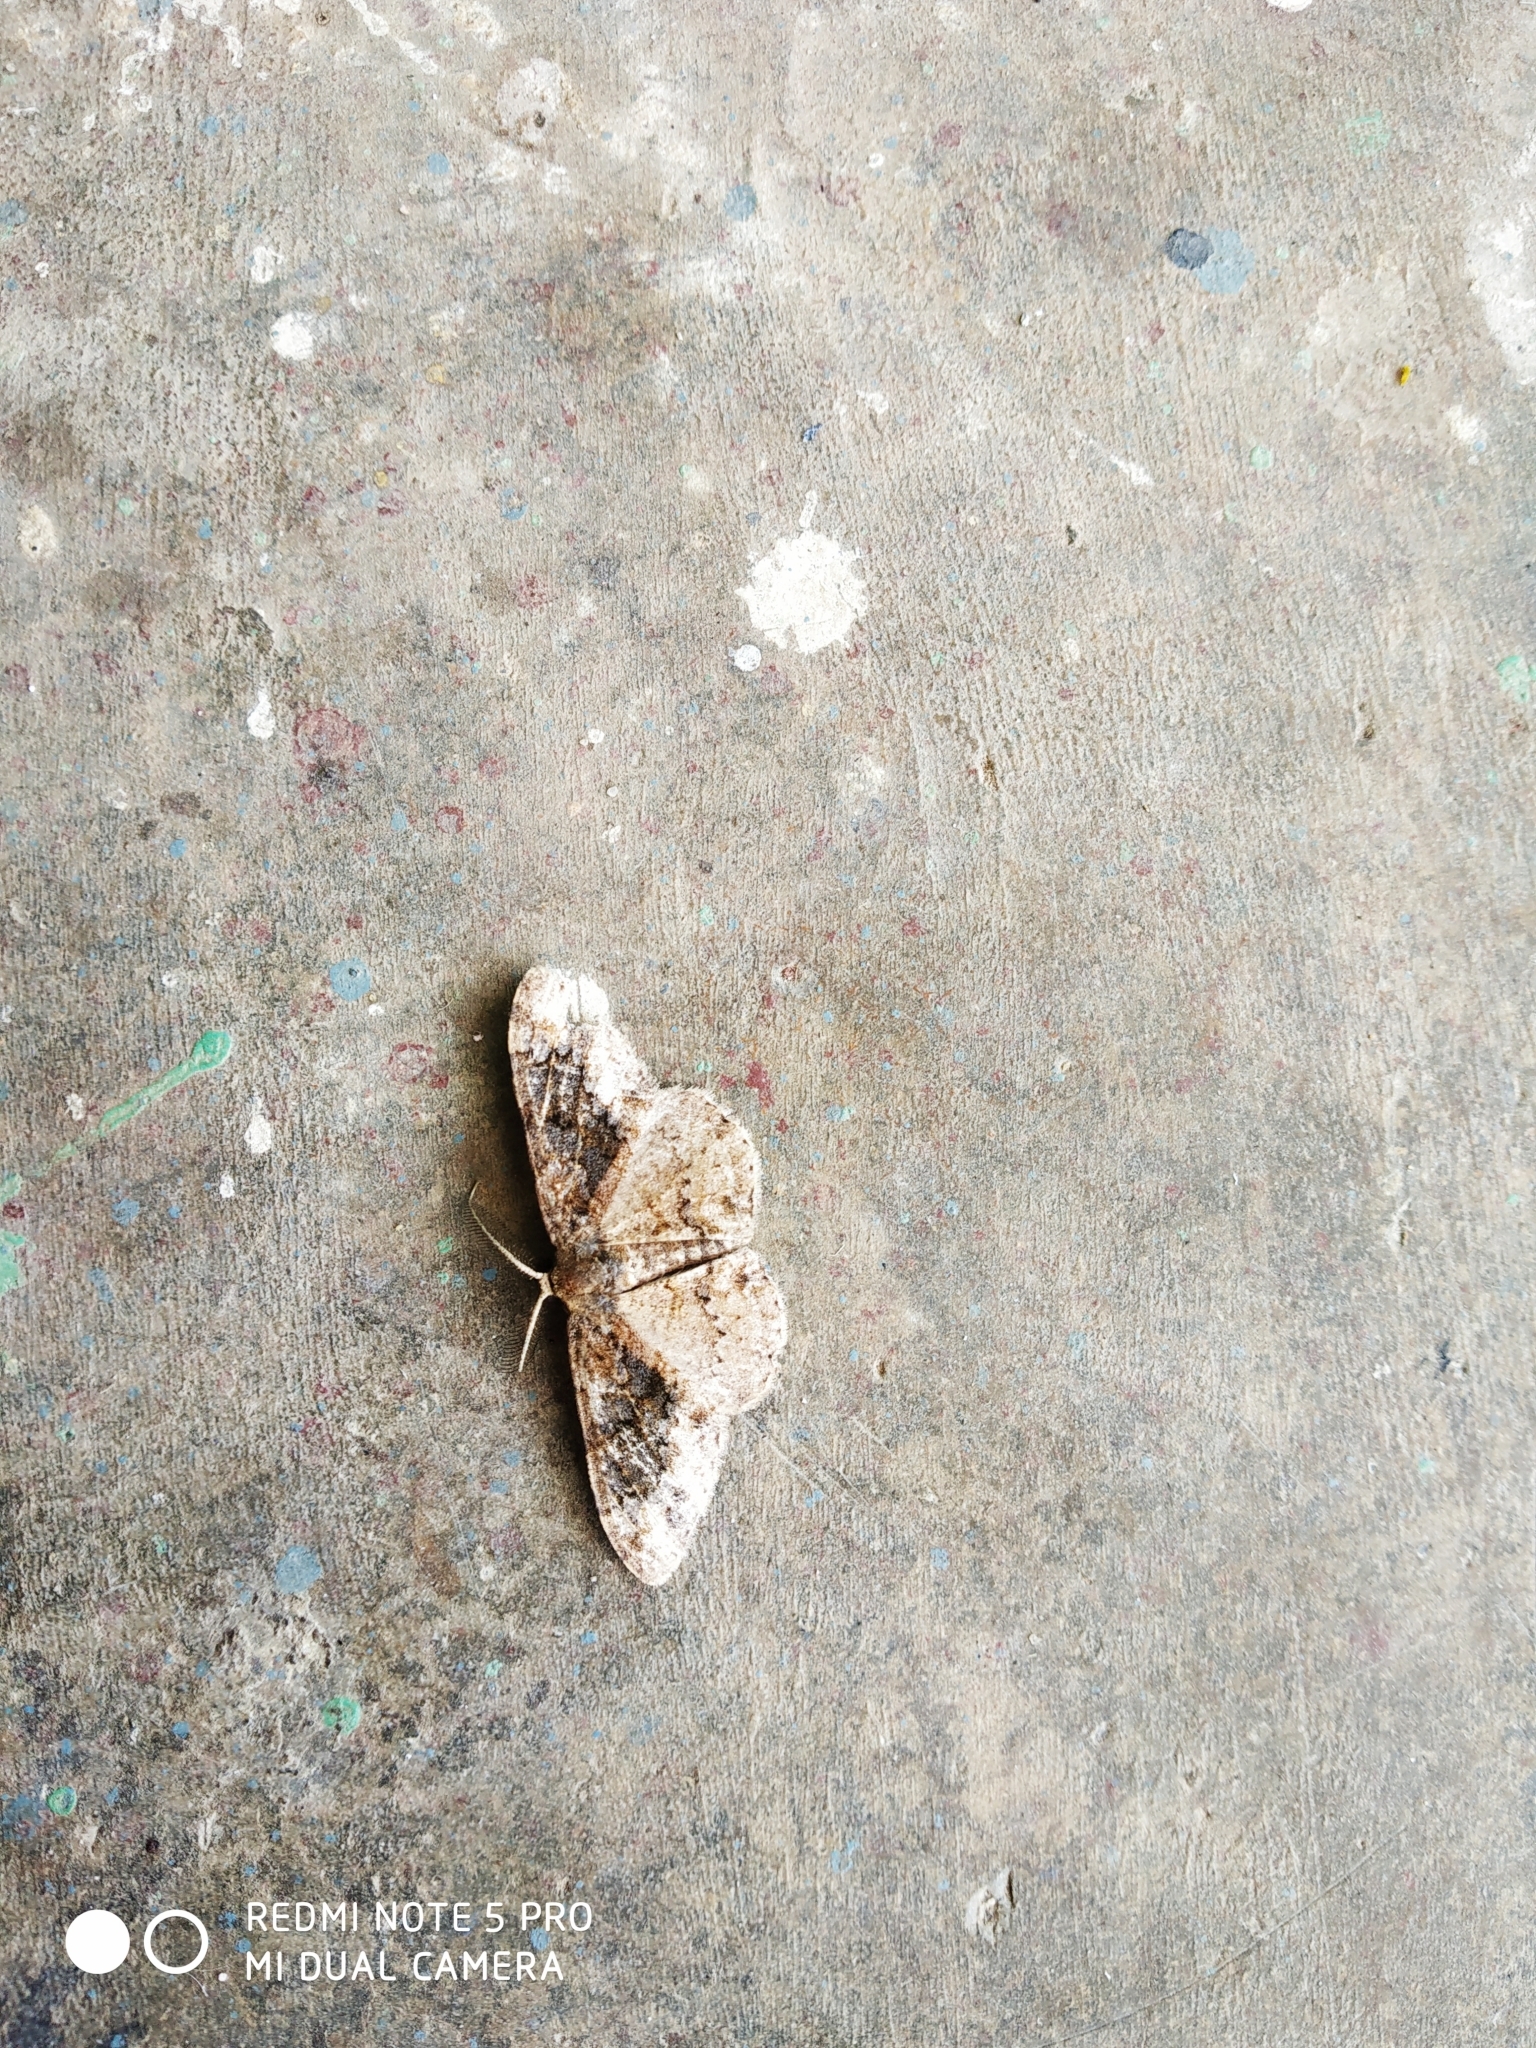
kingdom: Animalia
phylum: Arthropoda
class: Insecta
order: Lepidoptera
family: Geometridae
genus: Parapholodes
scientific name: Parapholodes
